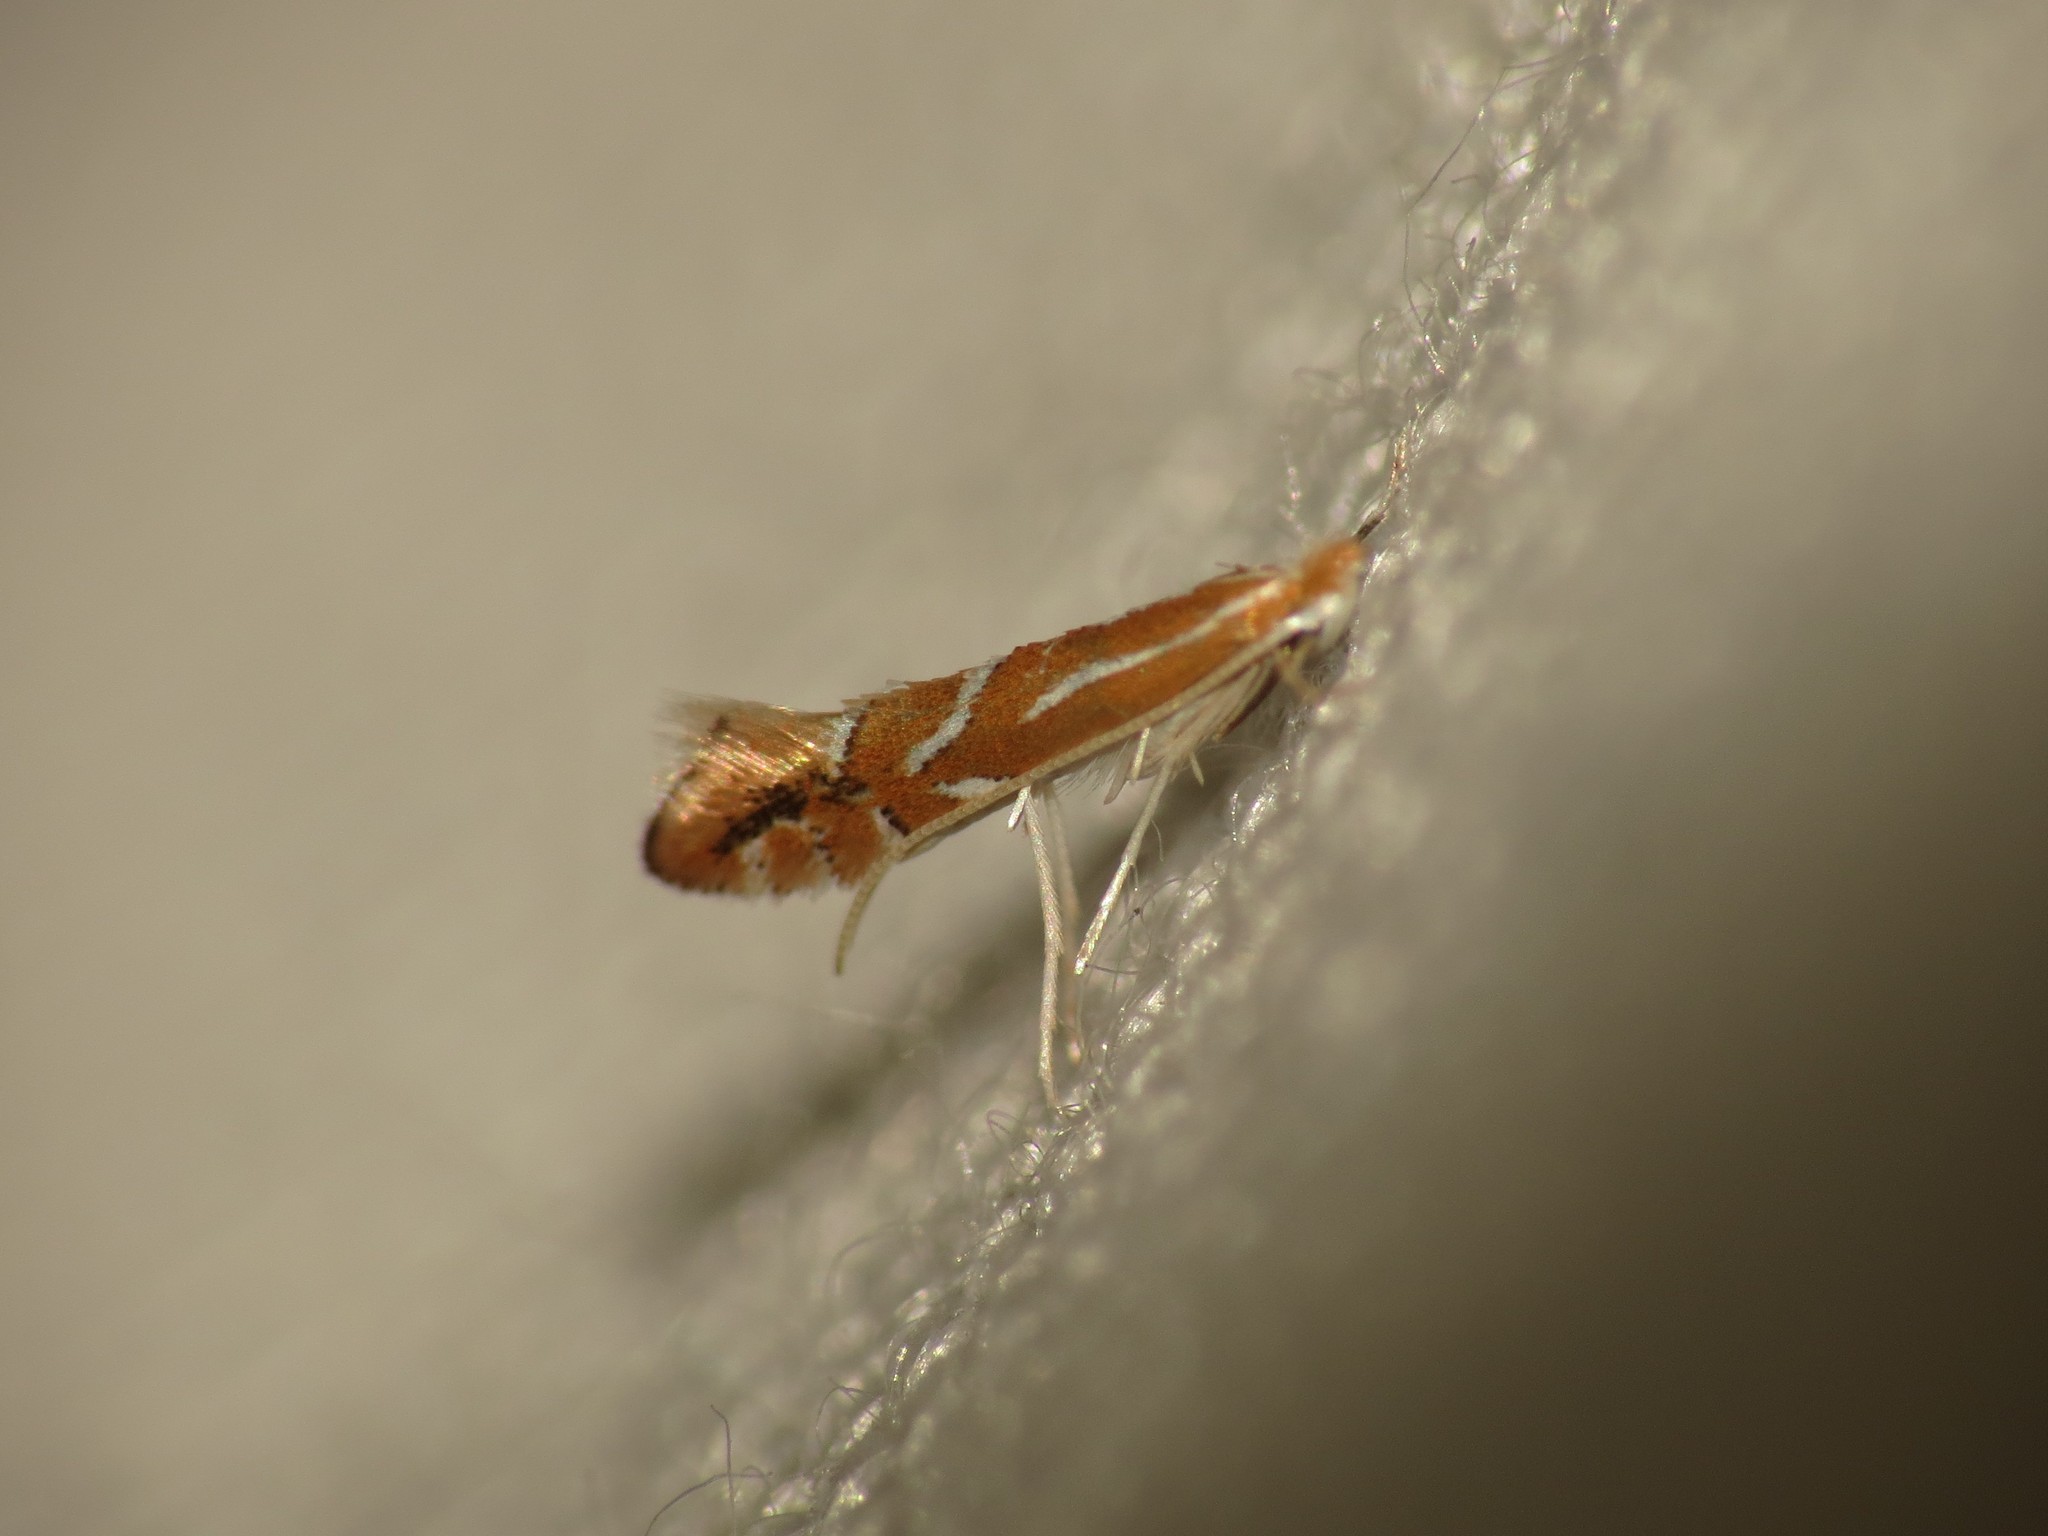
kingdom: Animalia
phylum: Arthropoda
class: Insecta
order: Lepidoptera
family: Gracillariidae
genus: Phyllonorycter
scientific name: Phyllonorycter leucographella
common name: Firethorn leaf-miner
